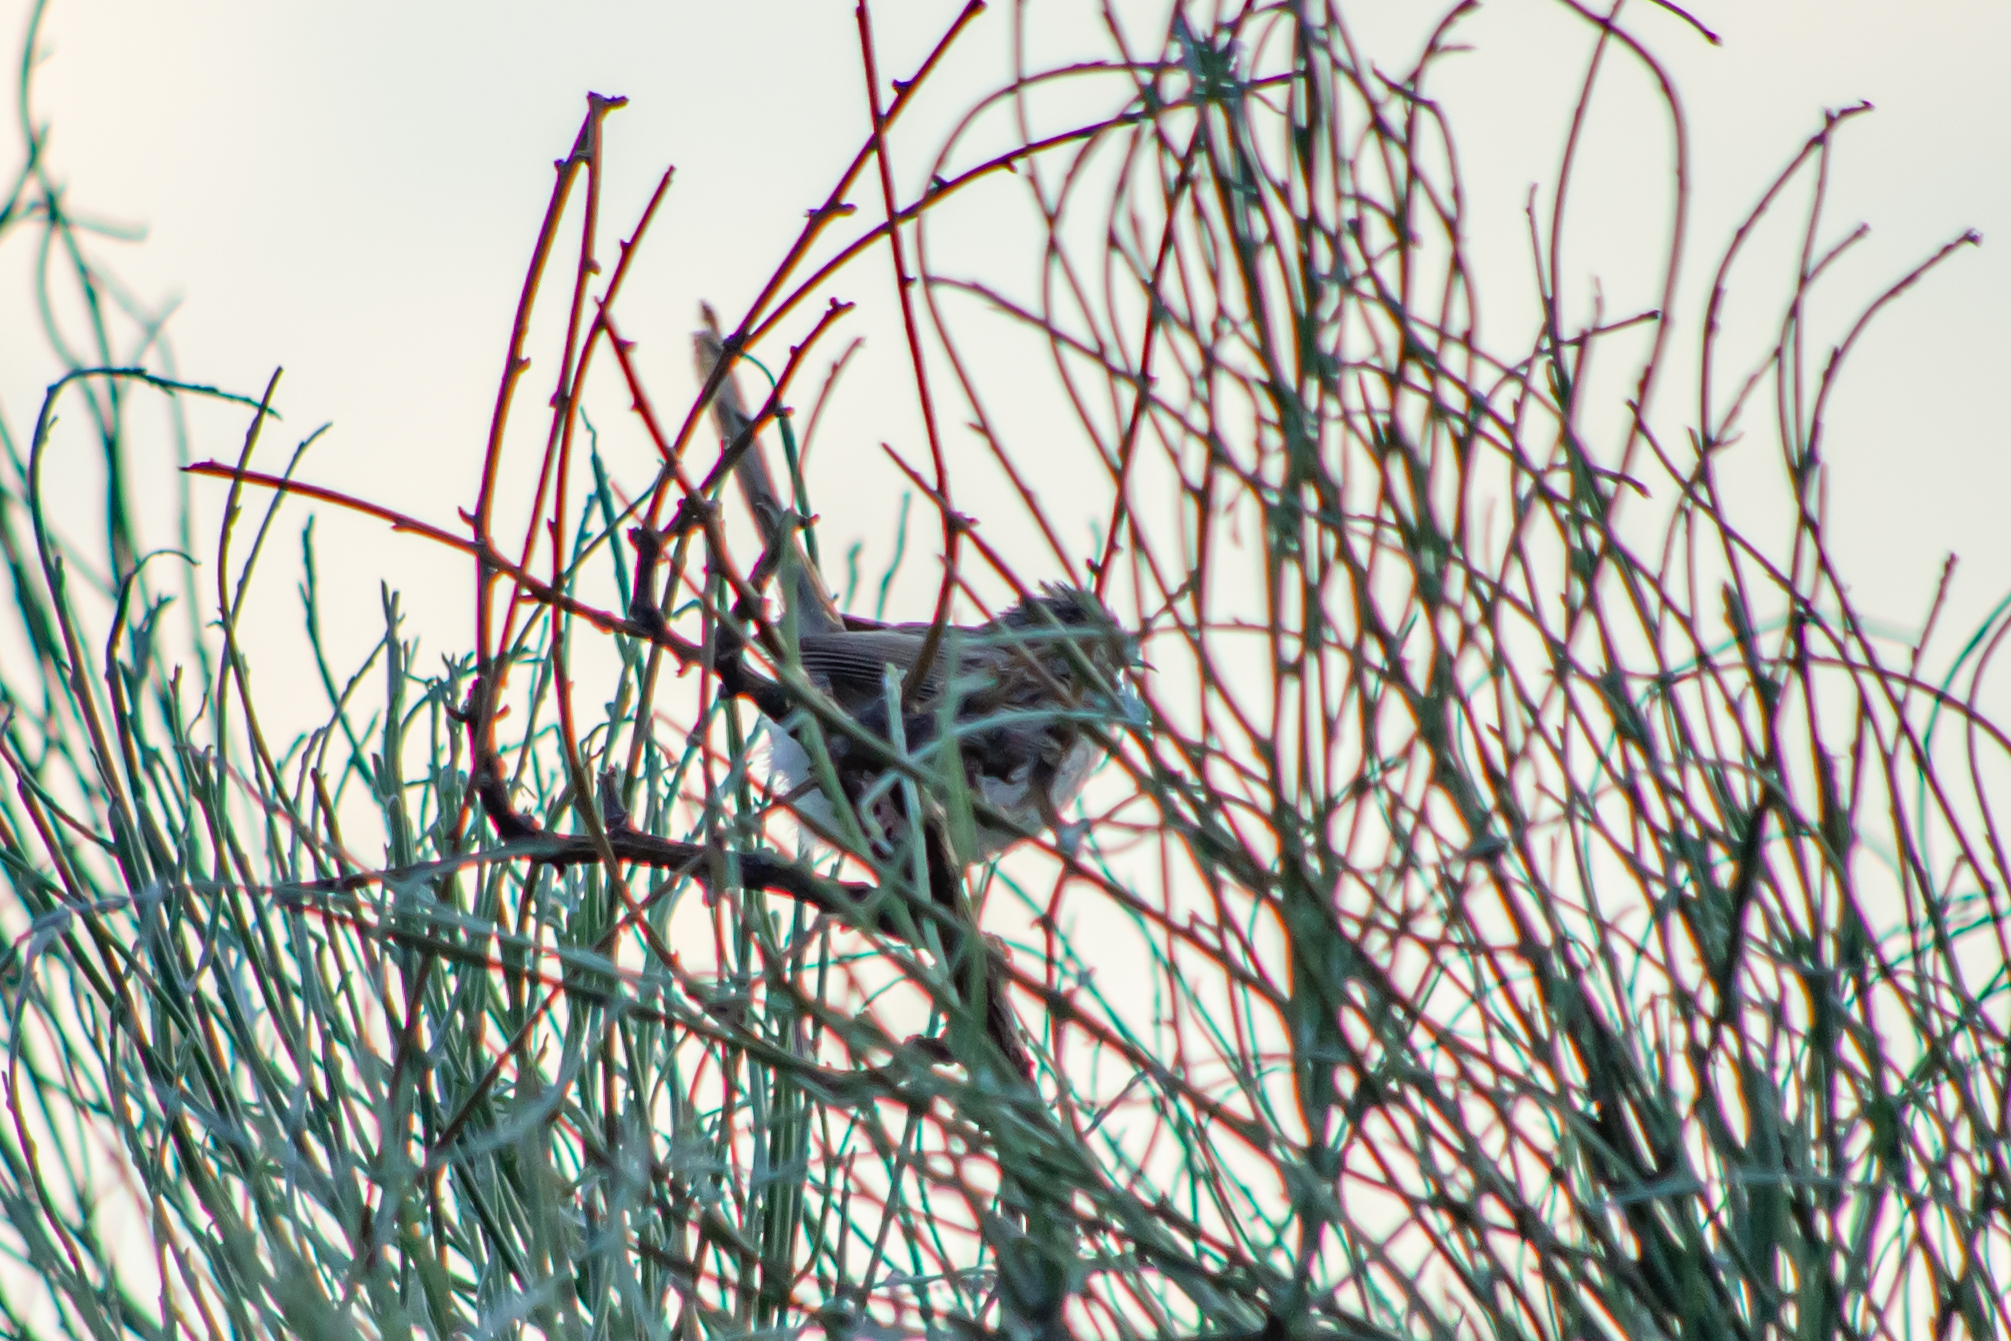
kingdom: Animalia
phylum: Chordata
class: Aves
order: Passeriformes
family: Cisticolidae
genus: Prinia
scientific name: Prinia gracilis
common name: Graceful prinia
